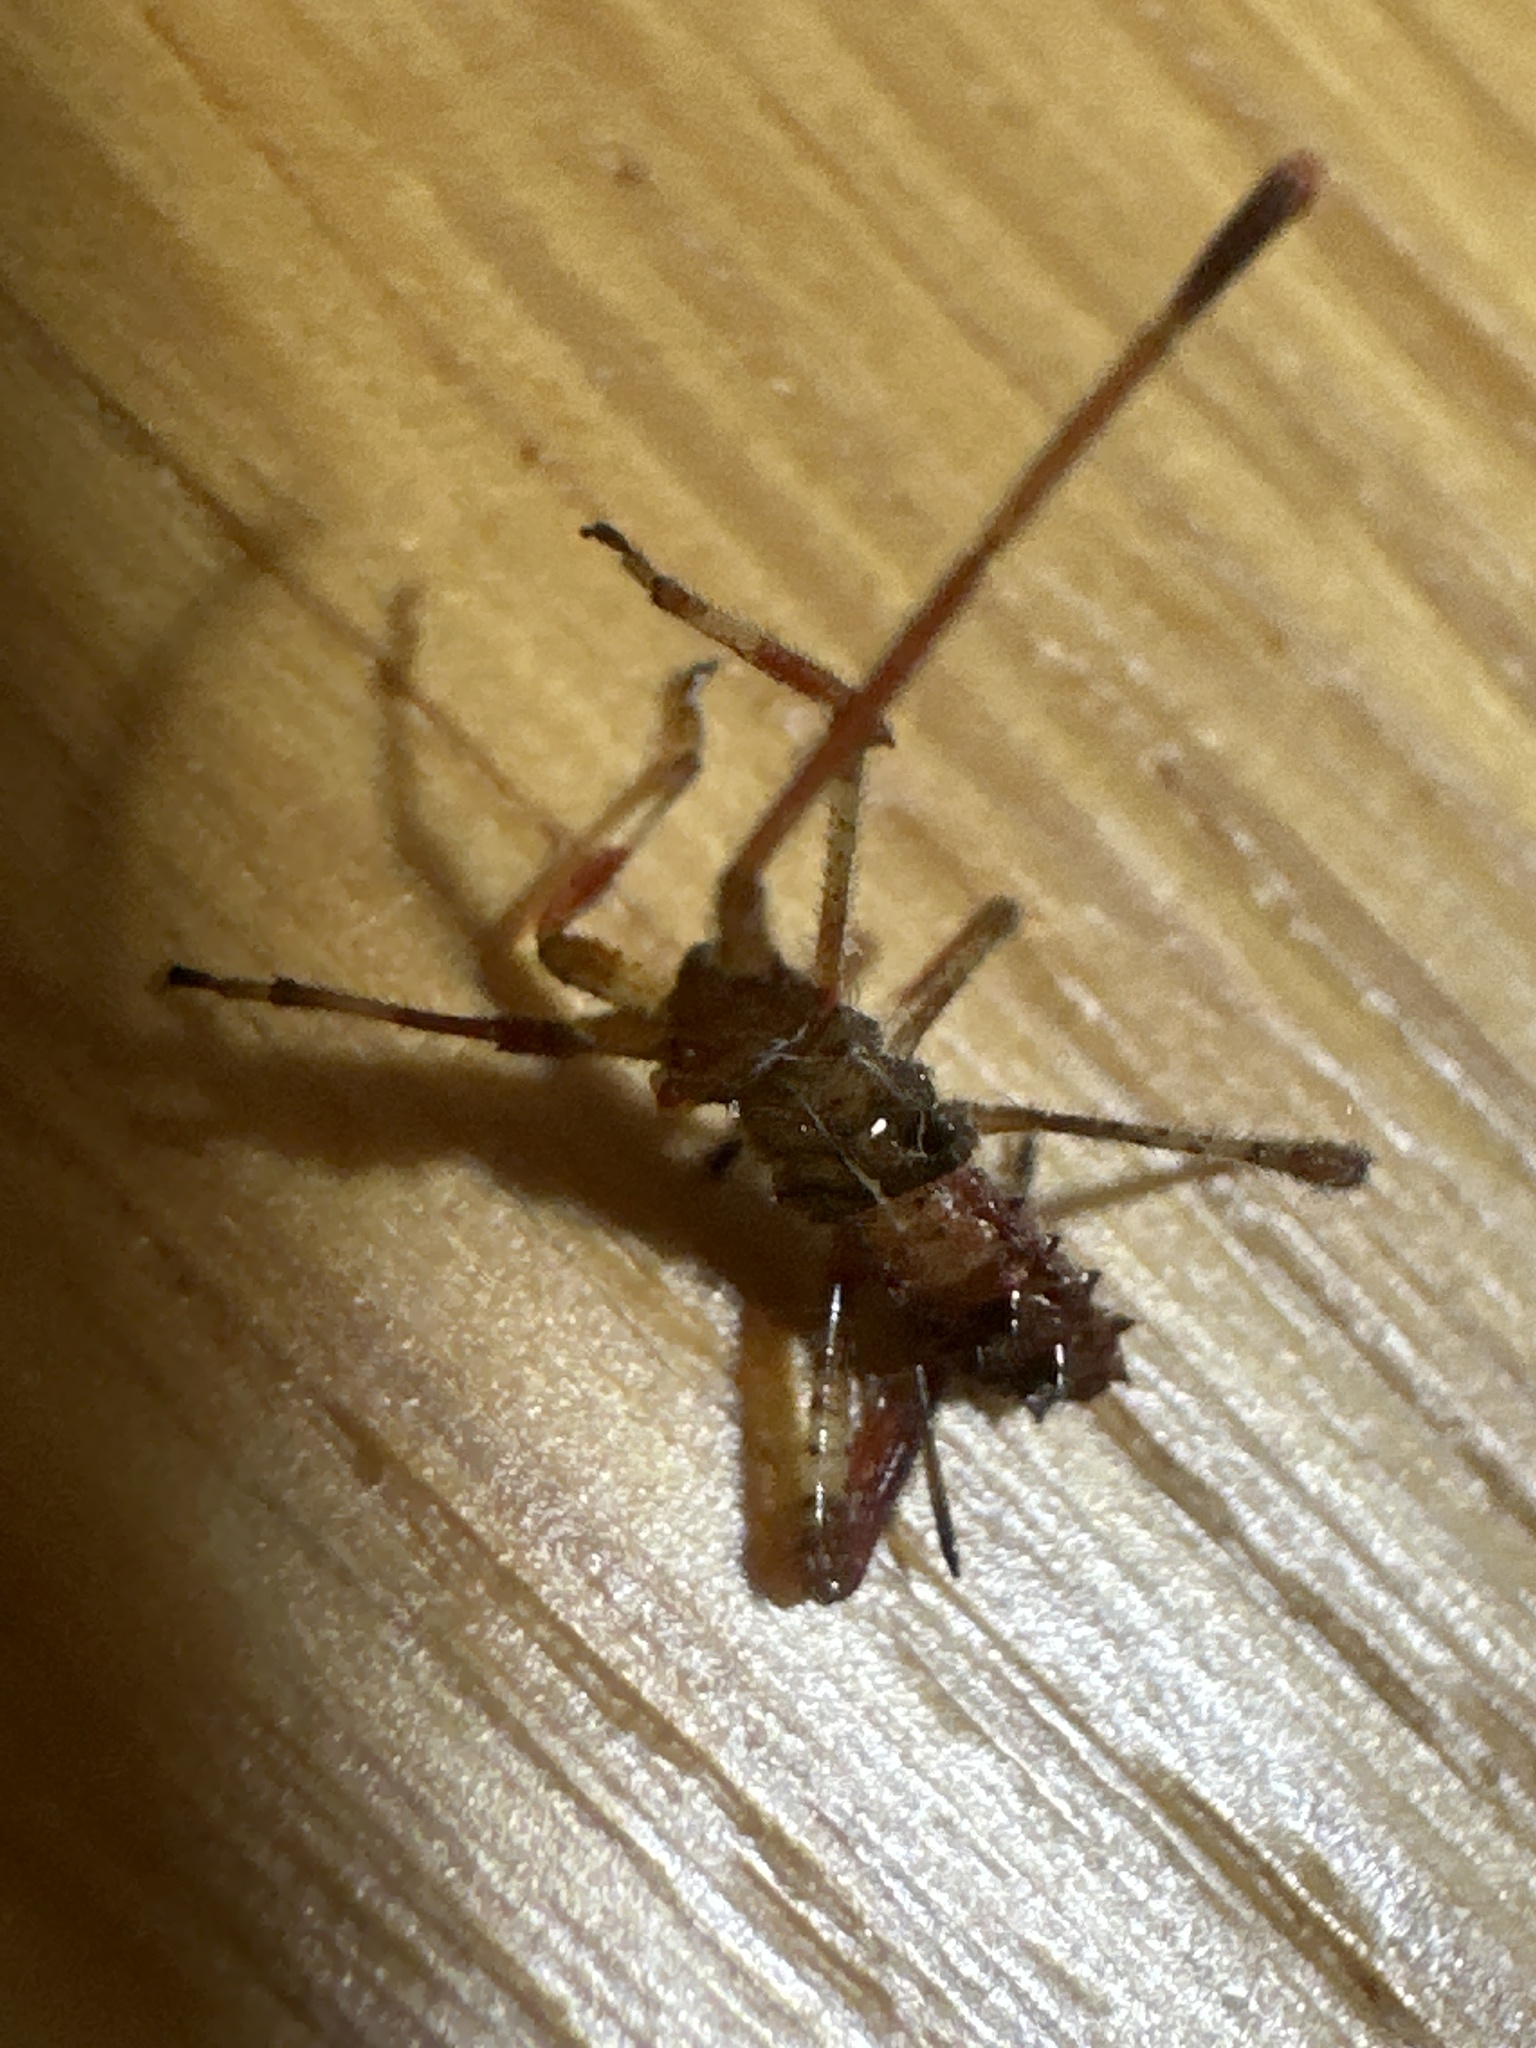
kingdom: Animalia
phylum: Arthropoda
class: Insecta
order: Hemiptera
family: Coreidae
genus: Leptoglossus
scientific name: Leptoglossus occidentalis
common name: Western conifer-seed bug
